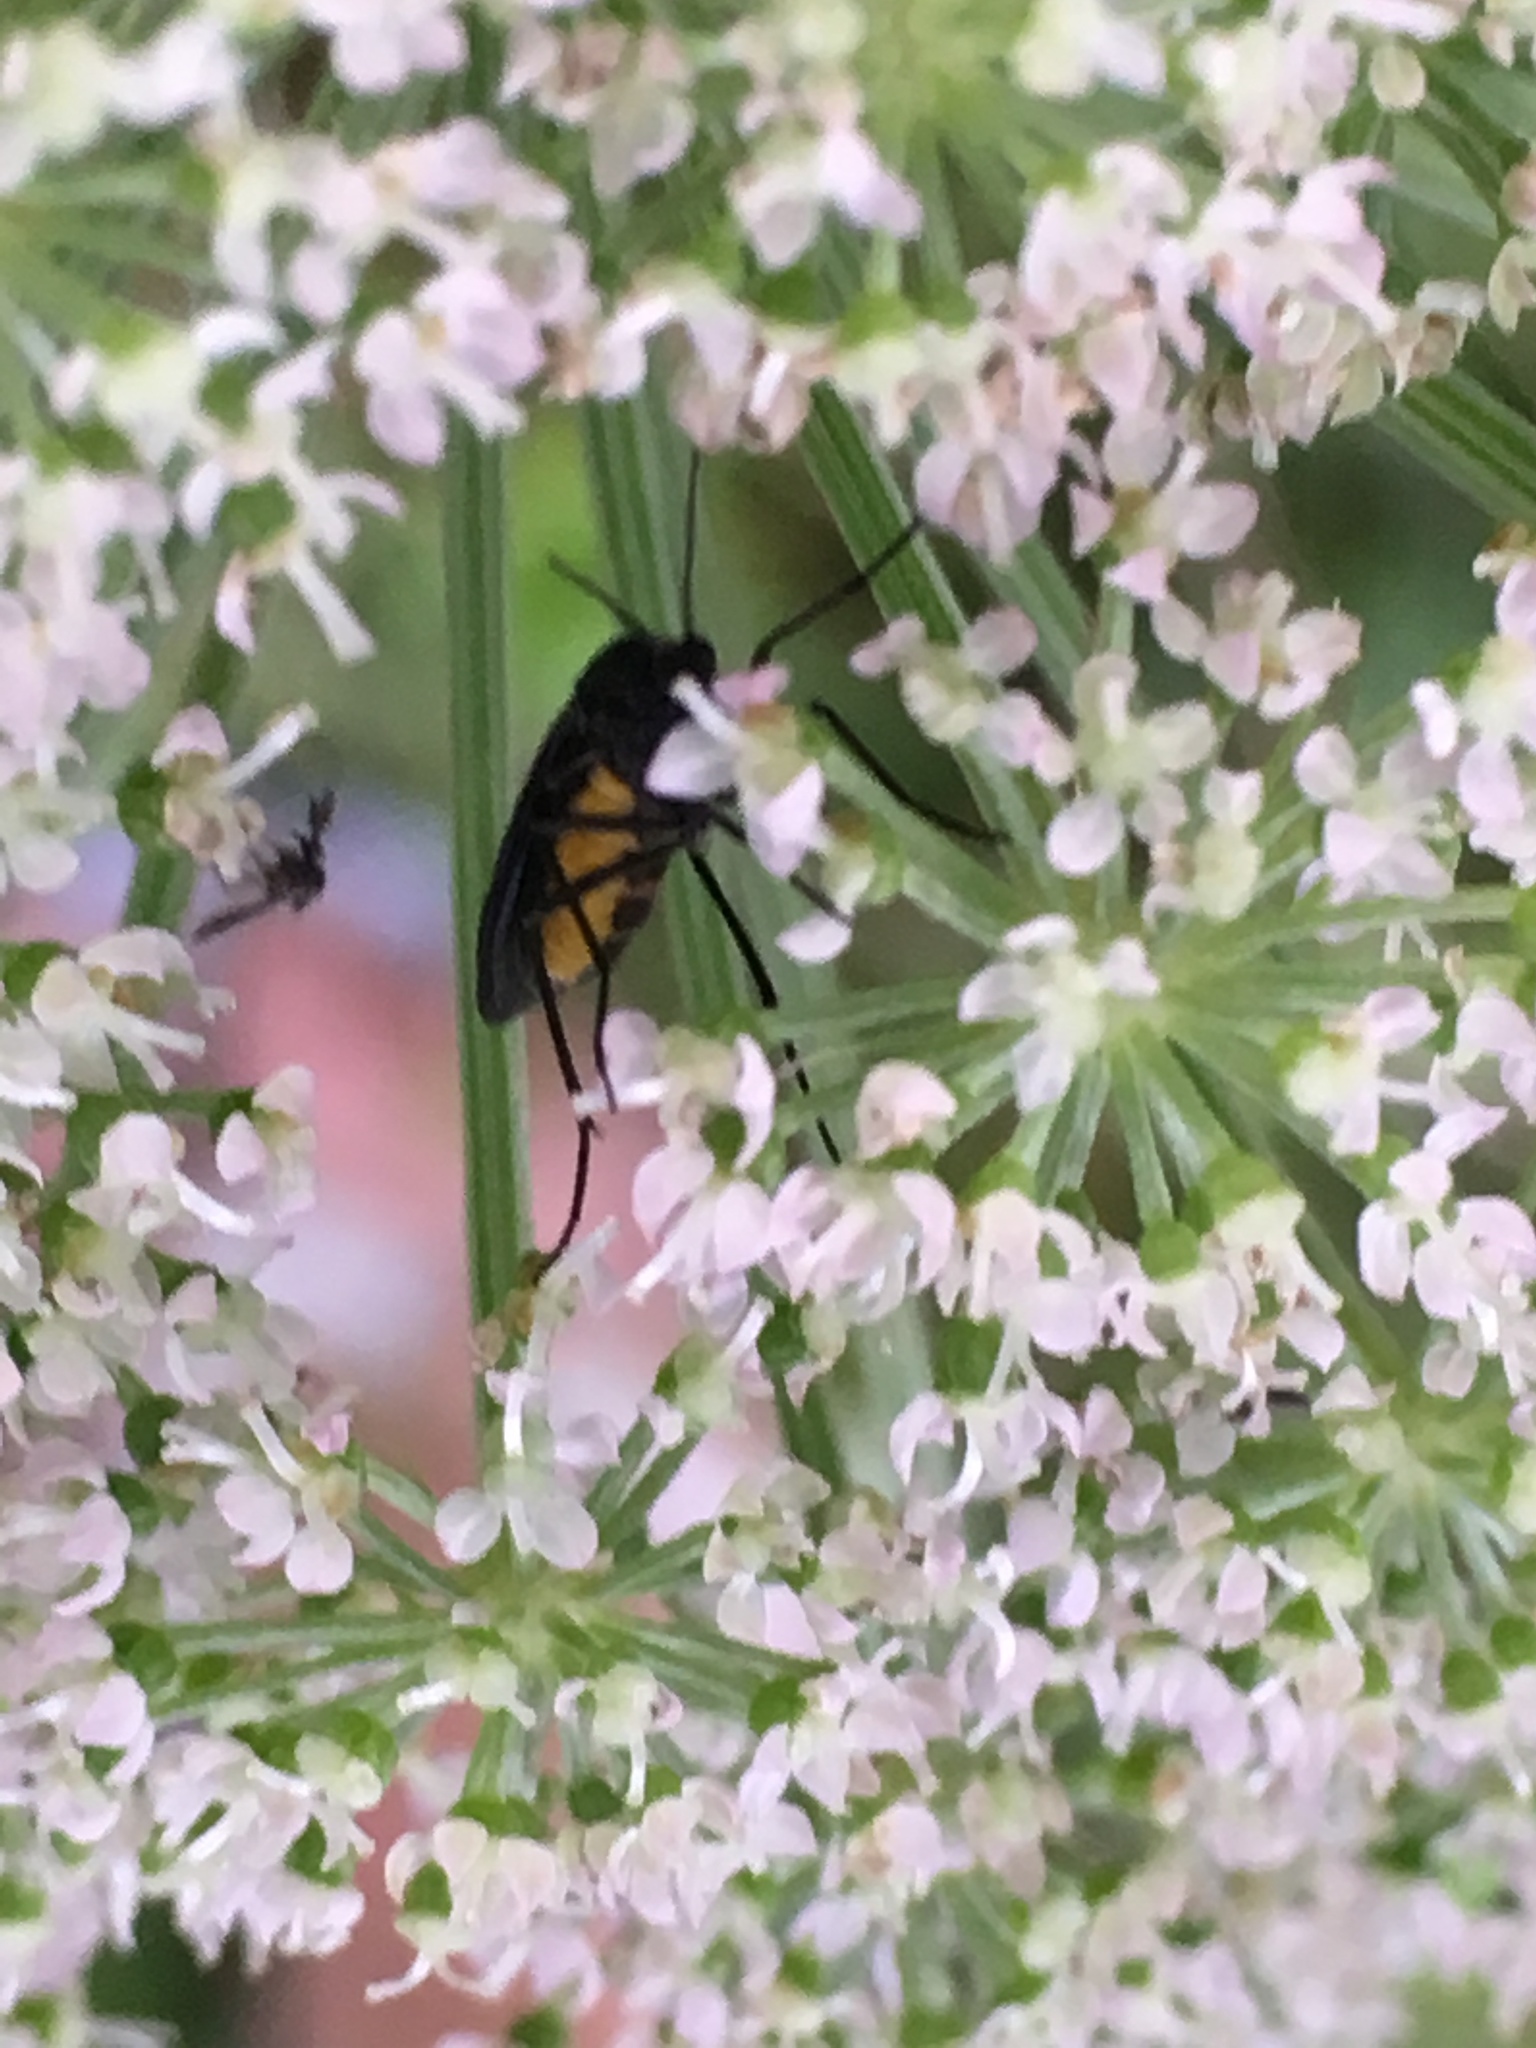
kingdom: Animalia
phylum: Arthropoda
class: Insecta
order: Diptera
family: Sciaridae
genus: Sciara
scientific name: Sciara hemerobioides
